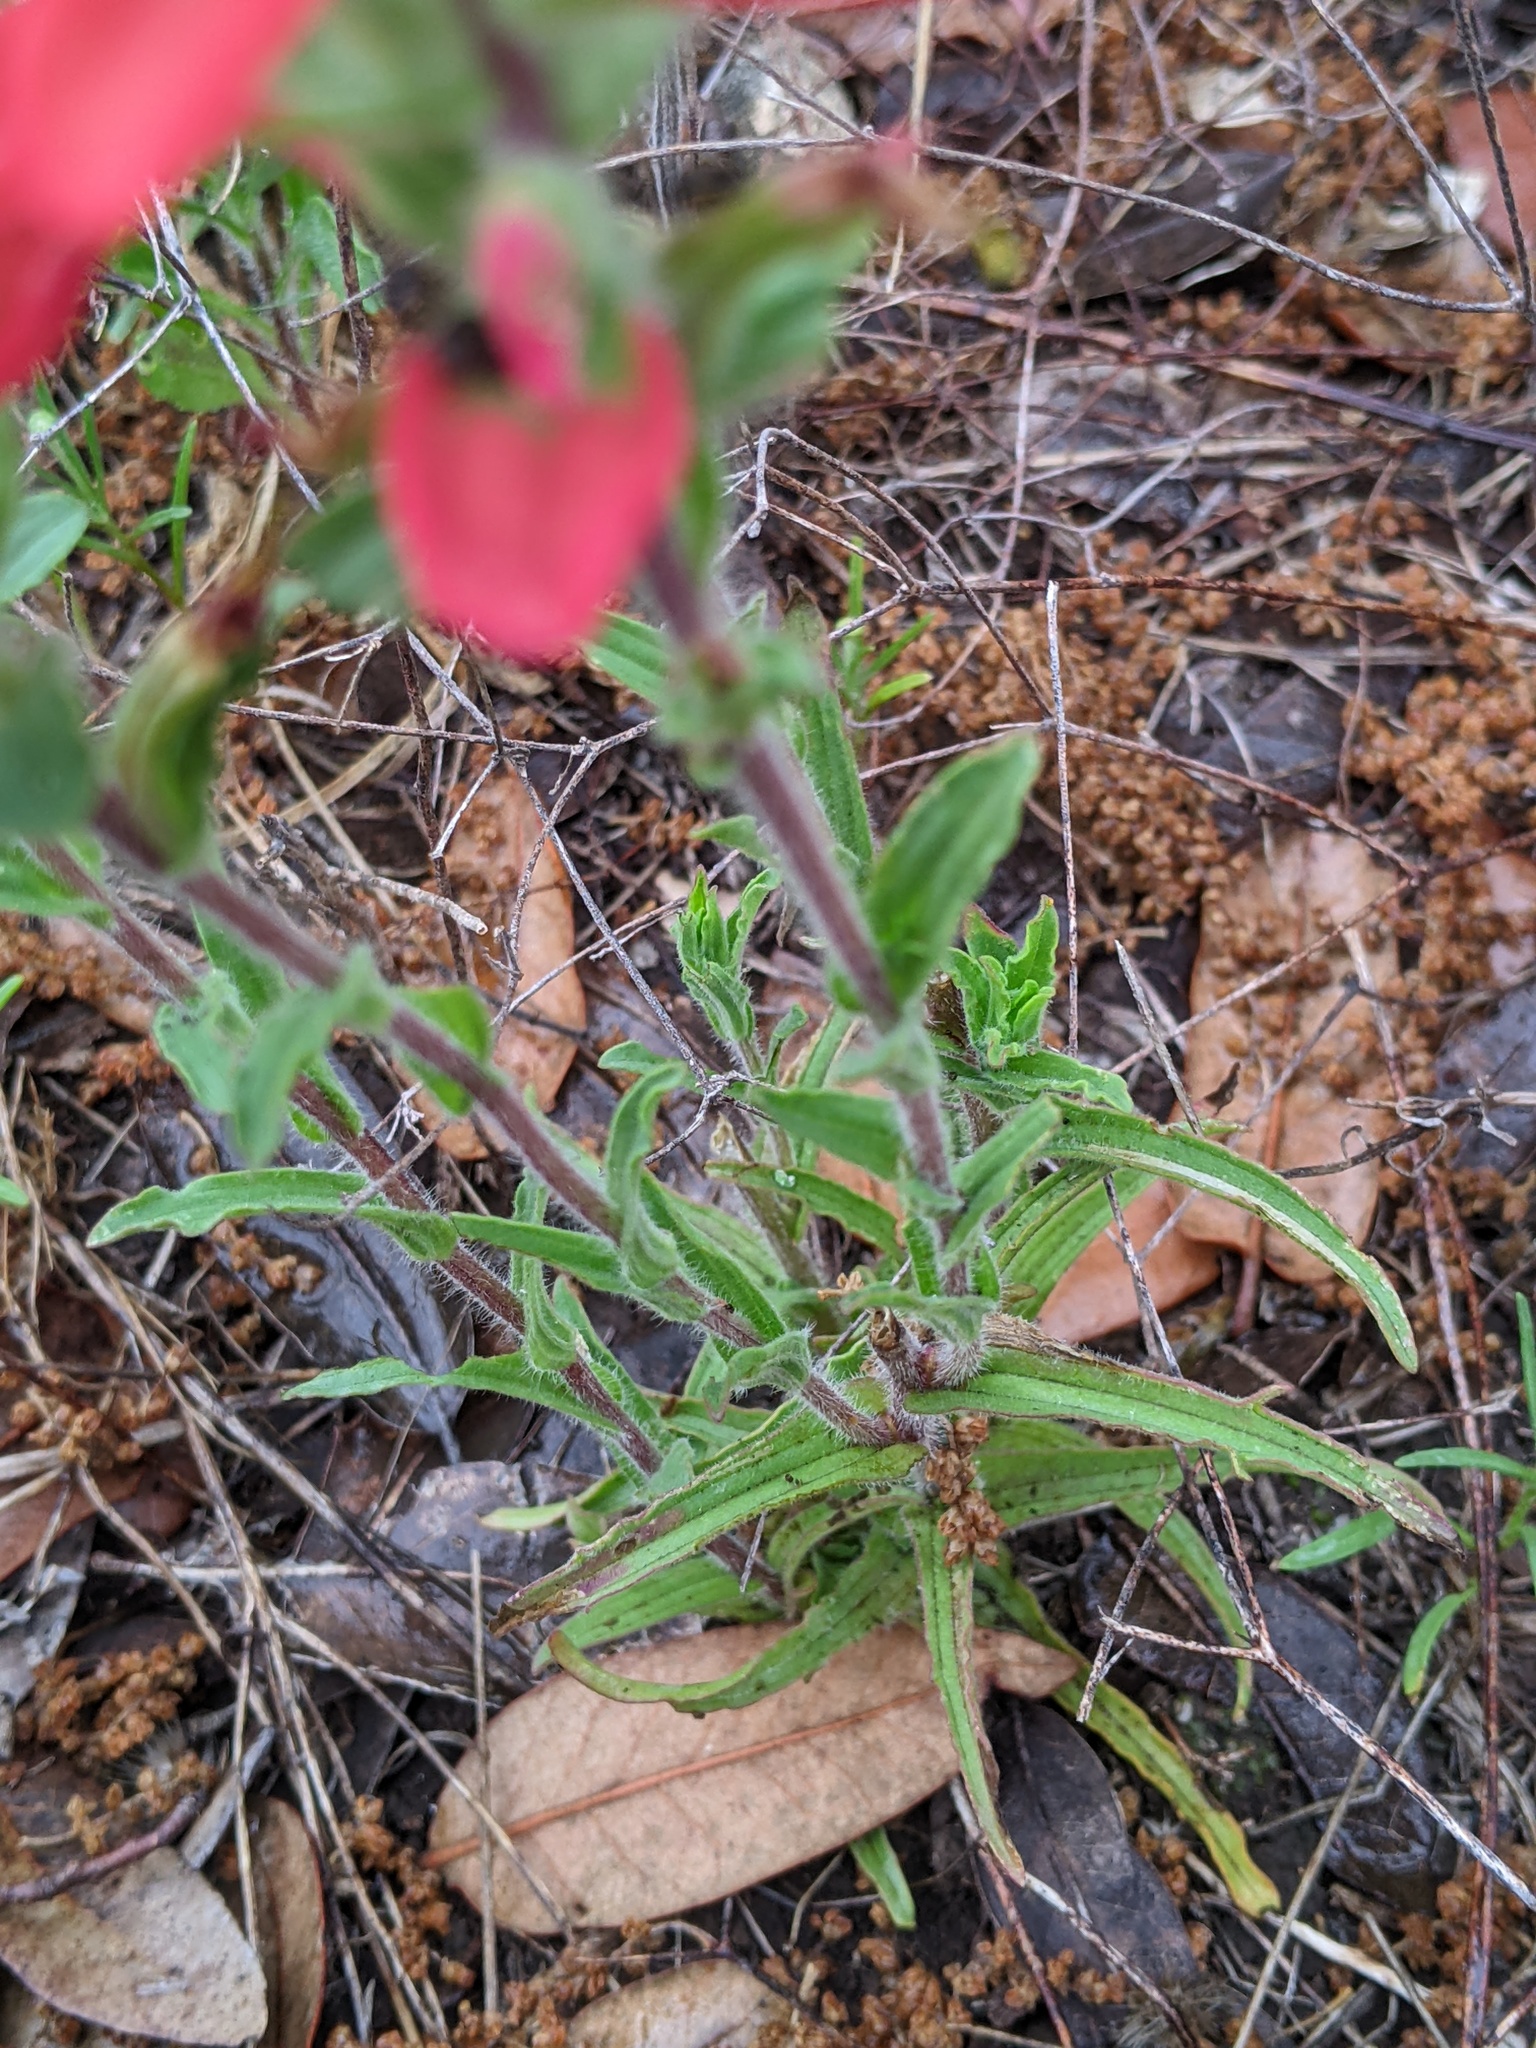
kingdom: Plantae
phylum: Tracheophyta
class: Magnoliopsida
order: Lamiales
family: Orobanchaceae
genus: Castilleja
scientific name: Castilleja indivisa
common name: Texas paintbrush
